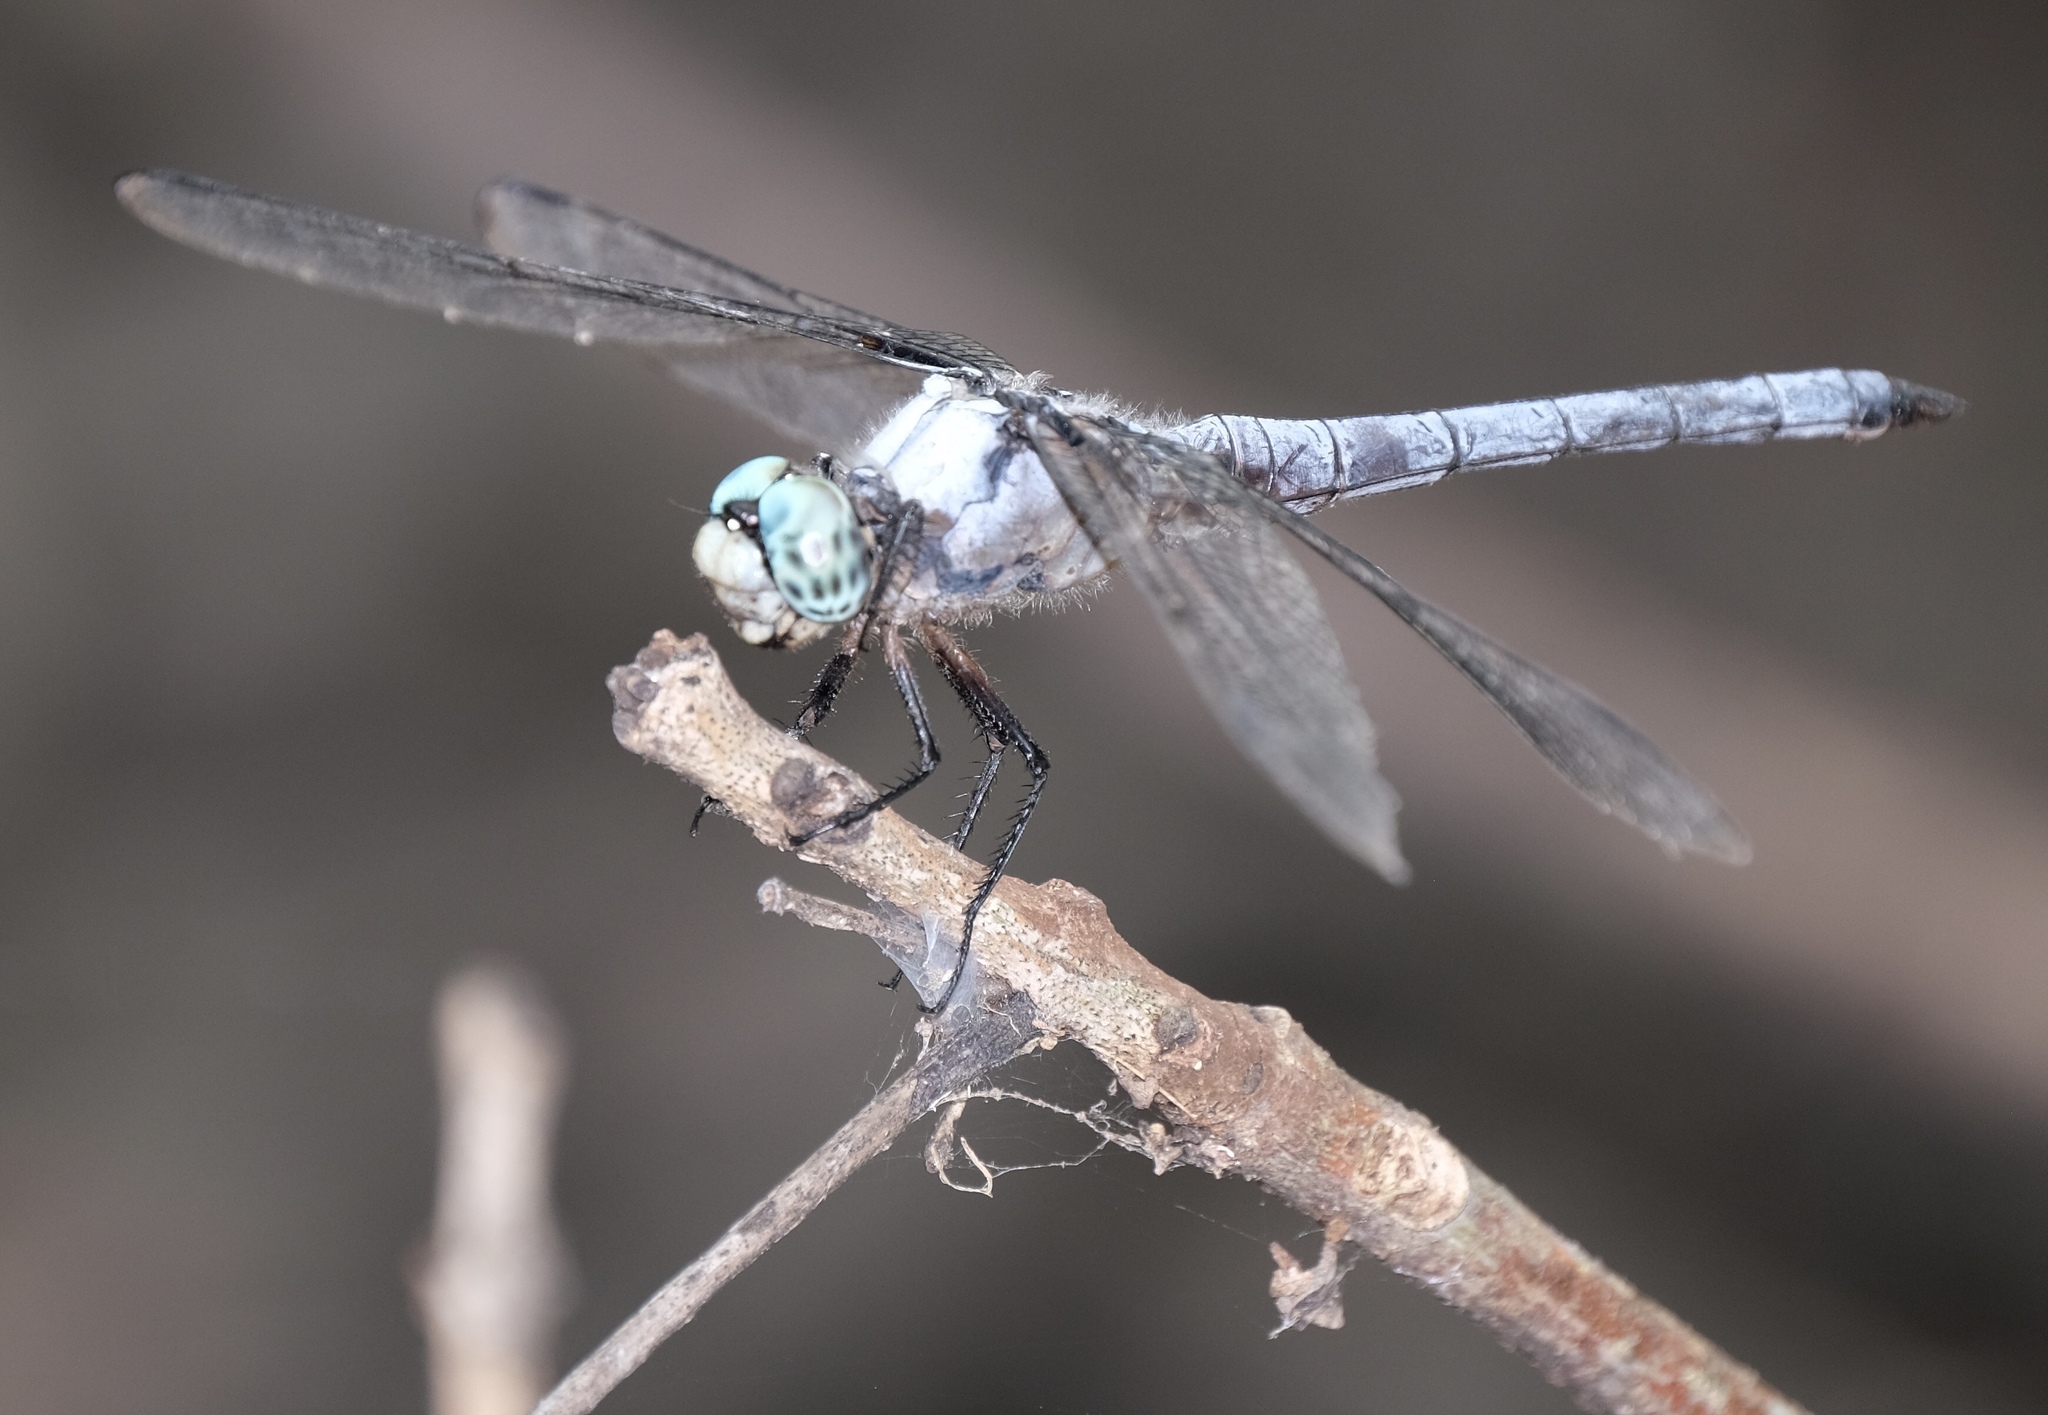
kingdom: Animalia
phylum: Arthropoda
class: Insecta
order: Odonata
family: Libellulidae
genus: Libellula
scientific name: Libellula vibrans
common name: Great blue skimmer
